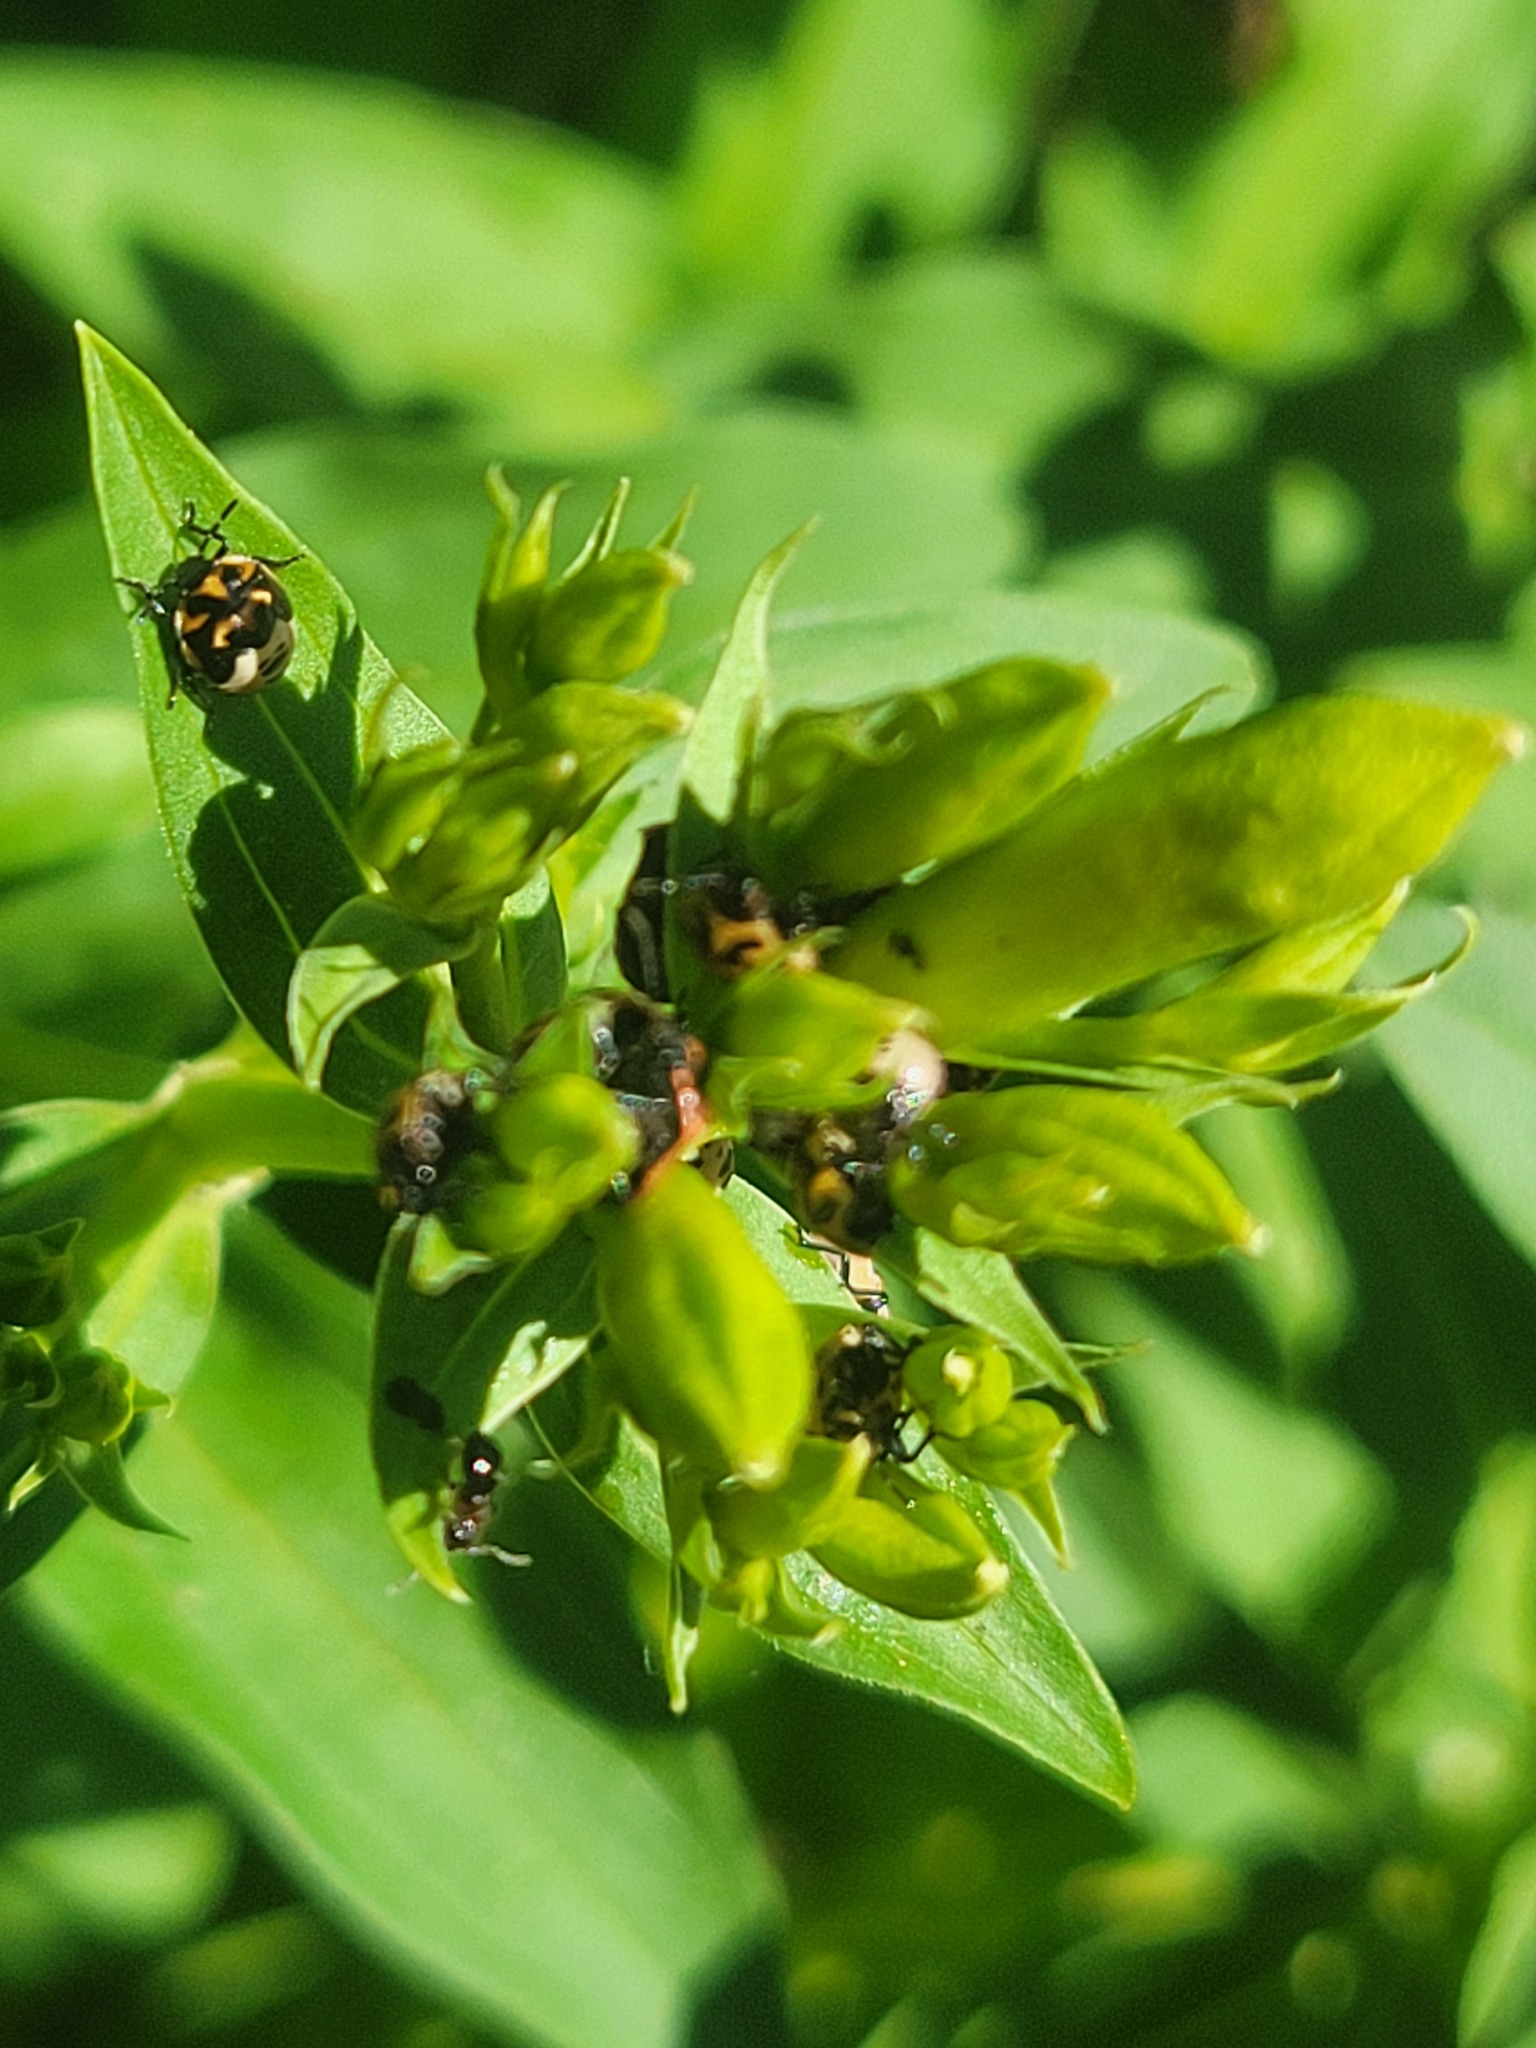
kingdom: Animalia
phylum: Arthropoda
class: Insecta
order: Hemiptera
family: Pentatomidae
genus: Cosmopepla
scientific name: Cosmopepla lintneriana
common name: Twice-stabbed stink bug
